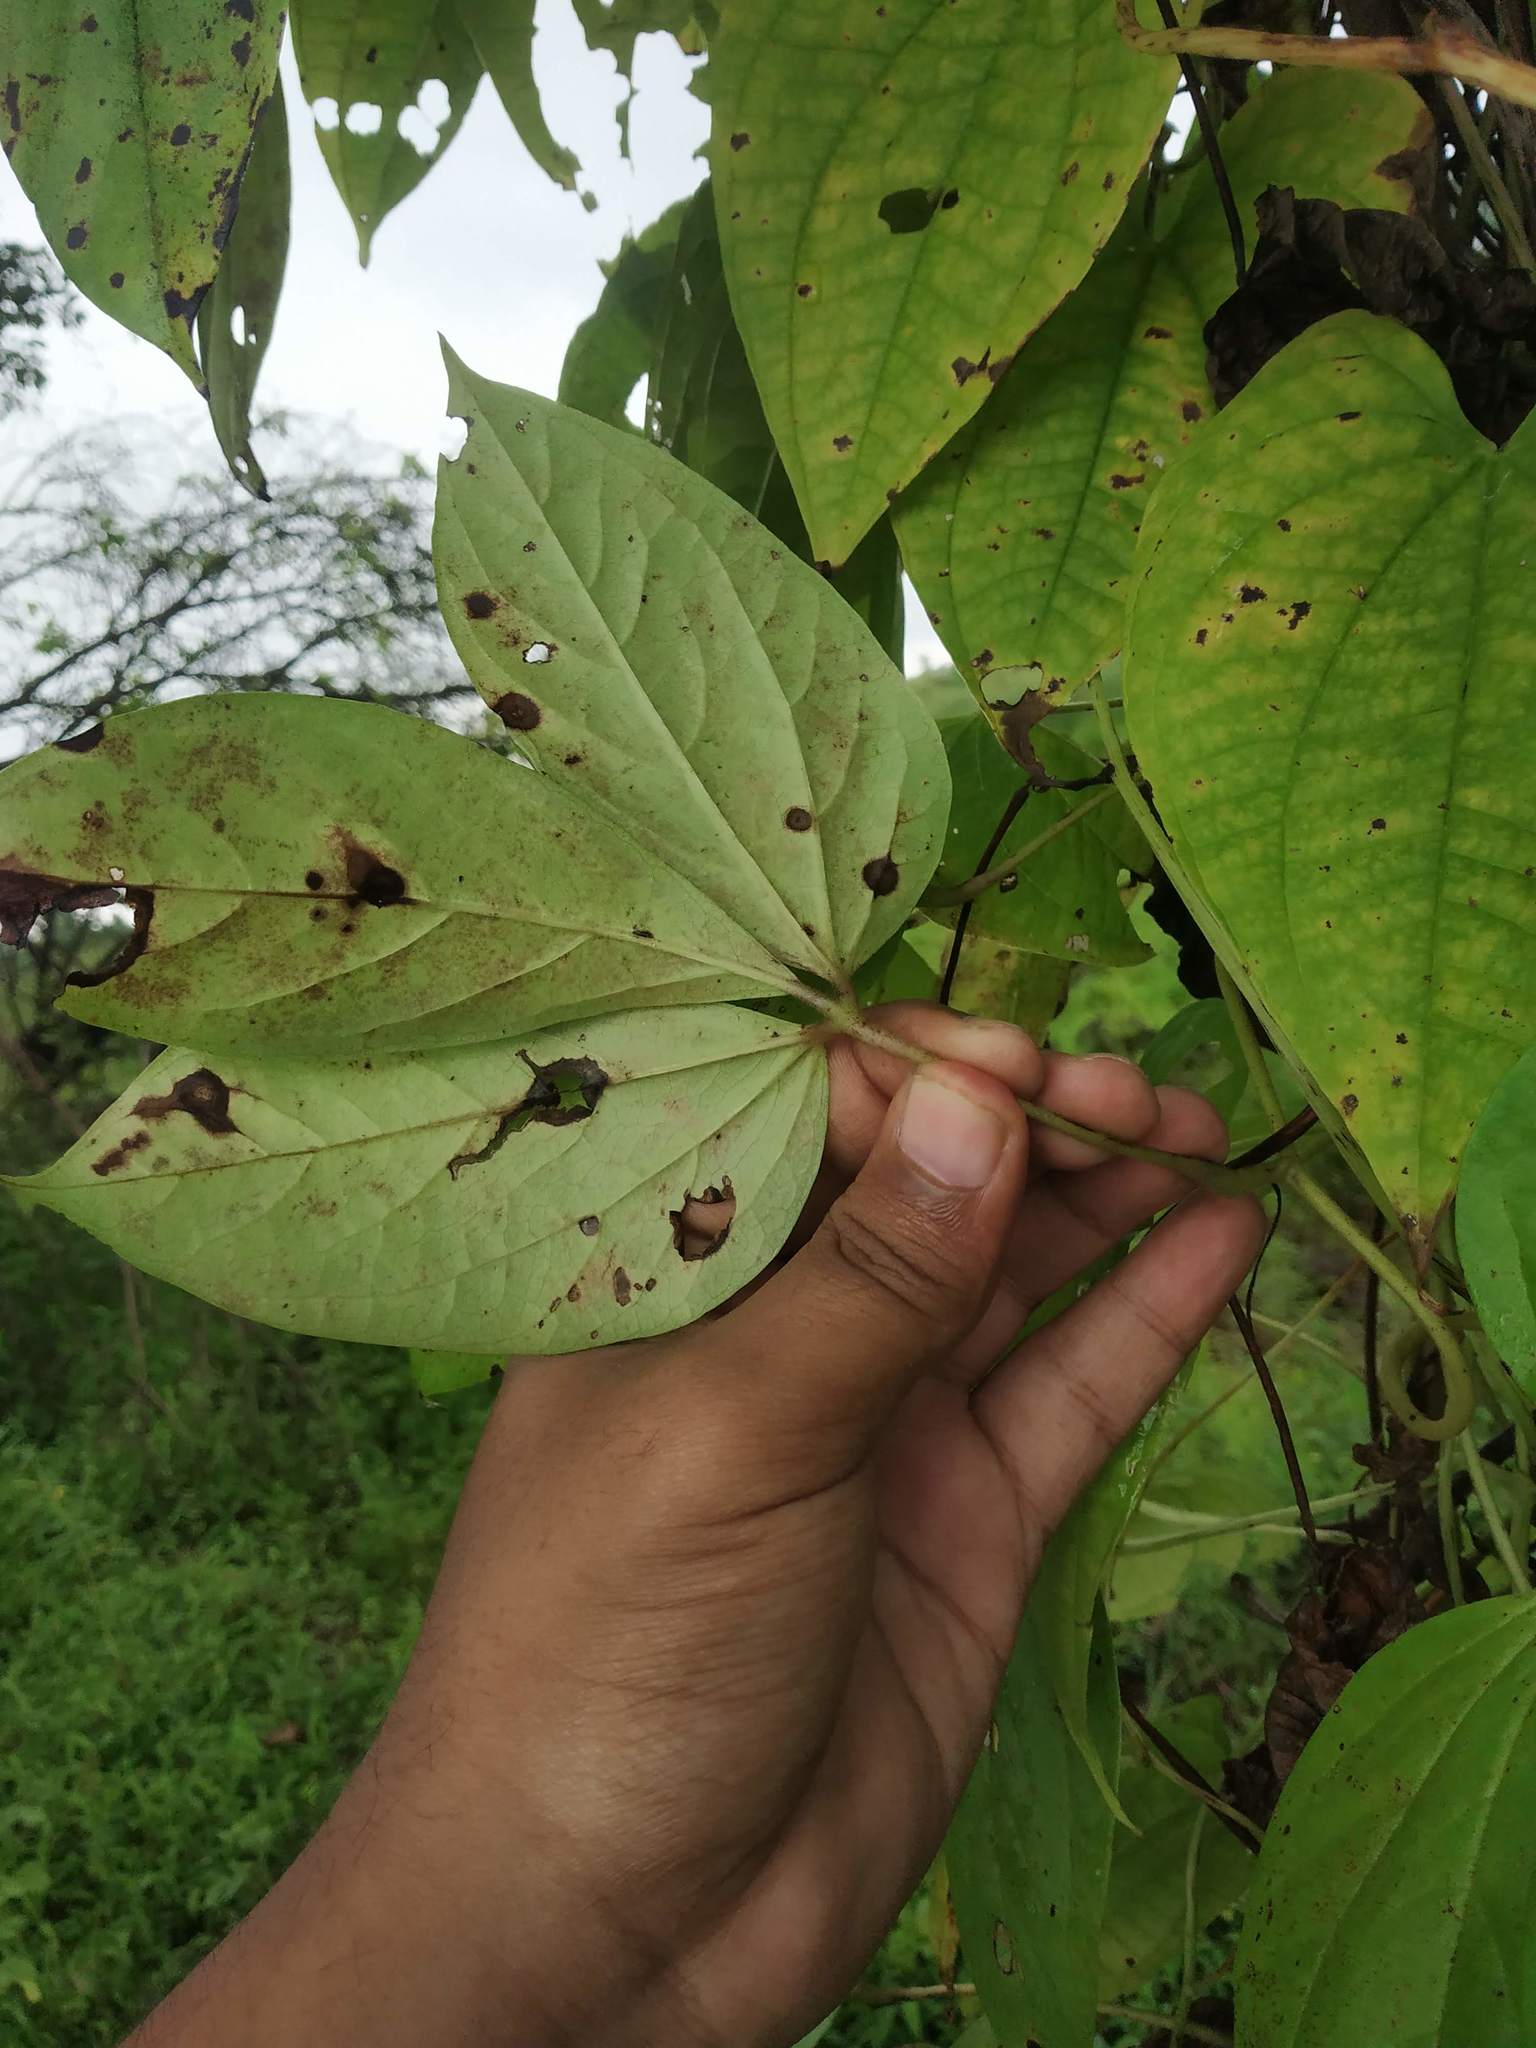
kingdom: Plantae
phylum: Tracheophyta
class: Liliopsida
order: Dioscoreales
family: Dioscoreaceae
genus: Dioscorea
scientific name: Dioscorea hispida
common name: Asiatic bitter yam
